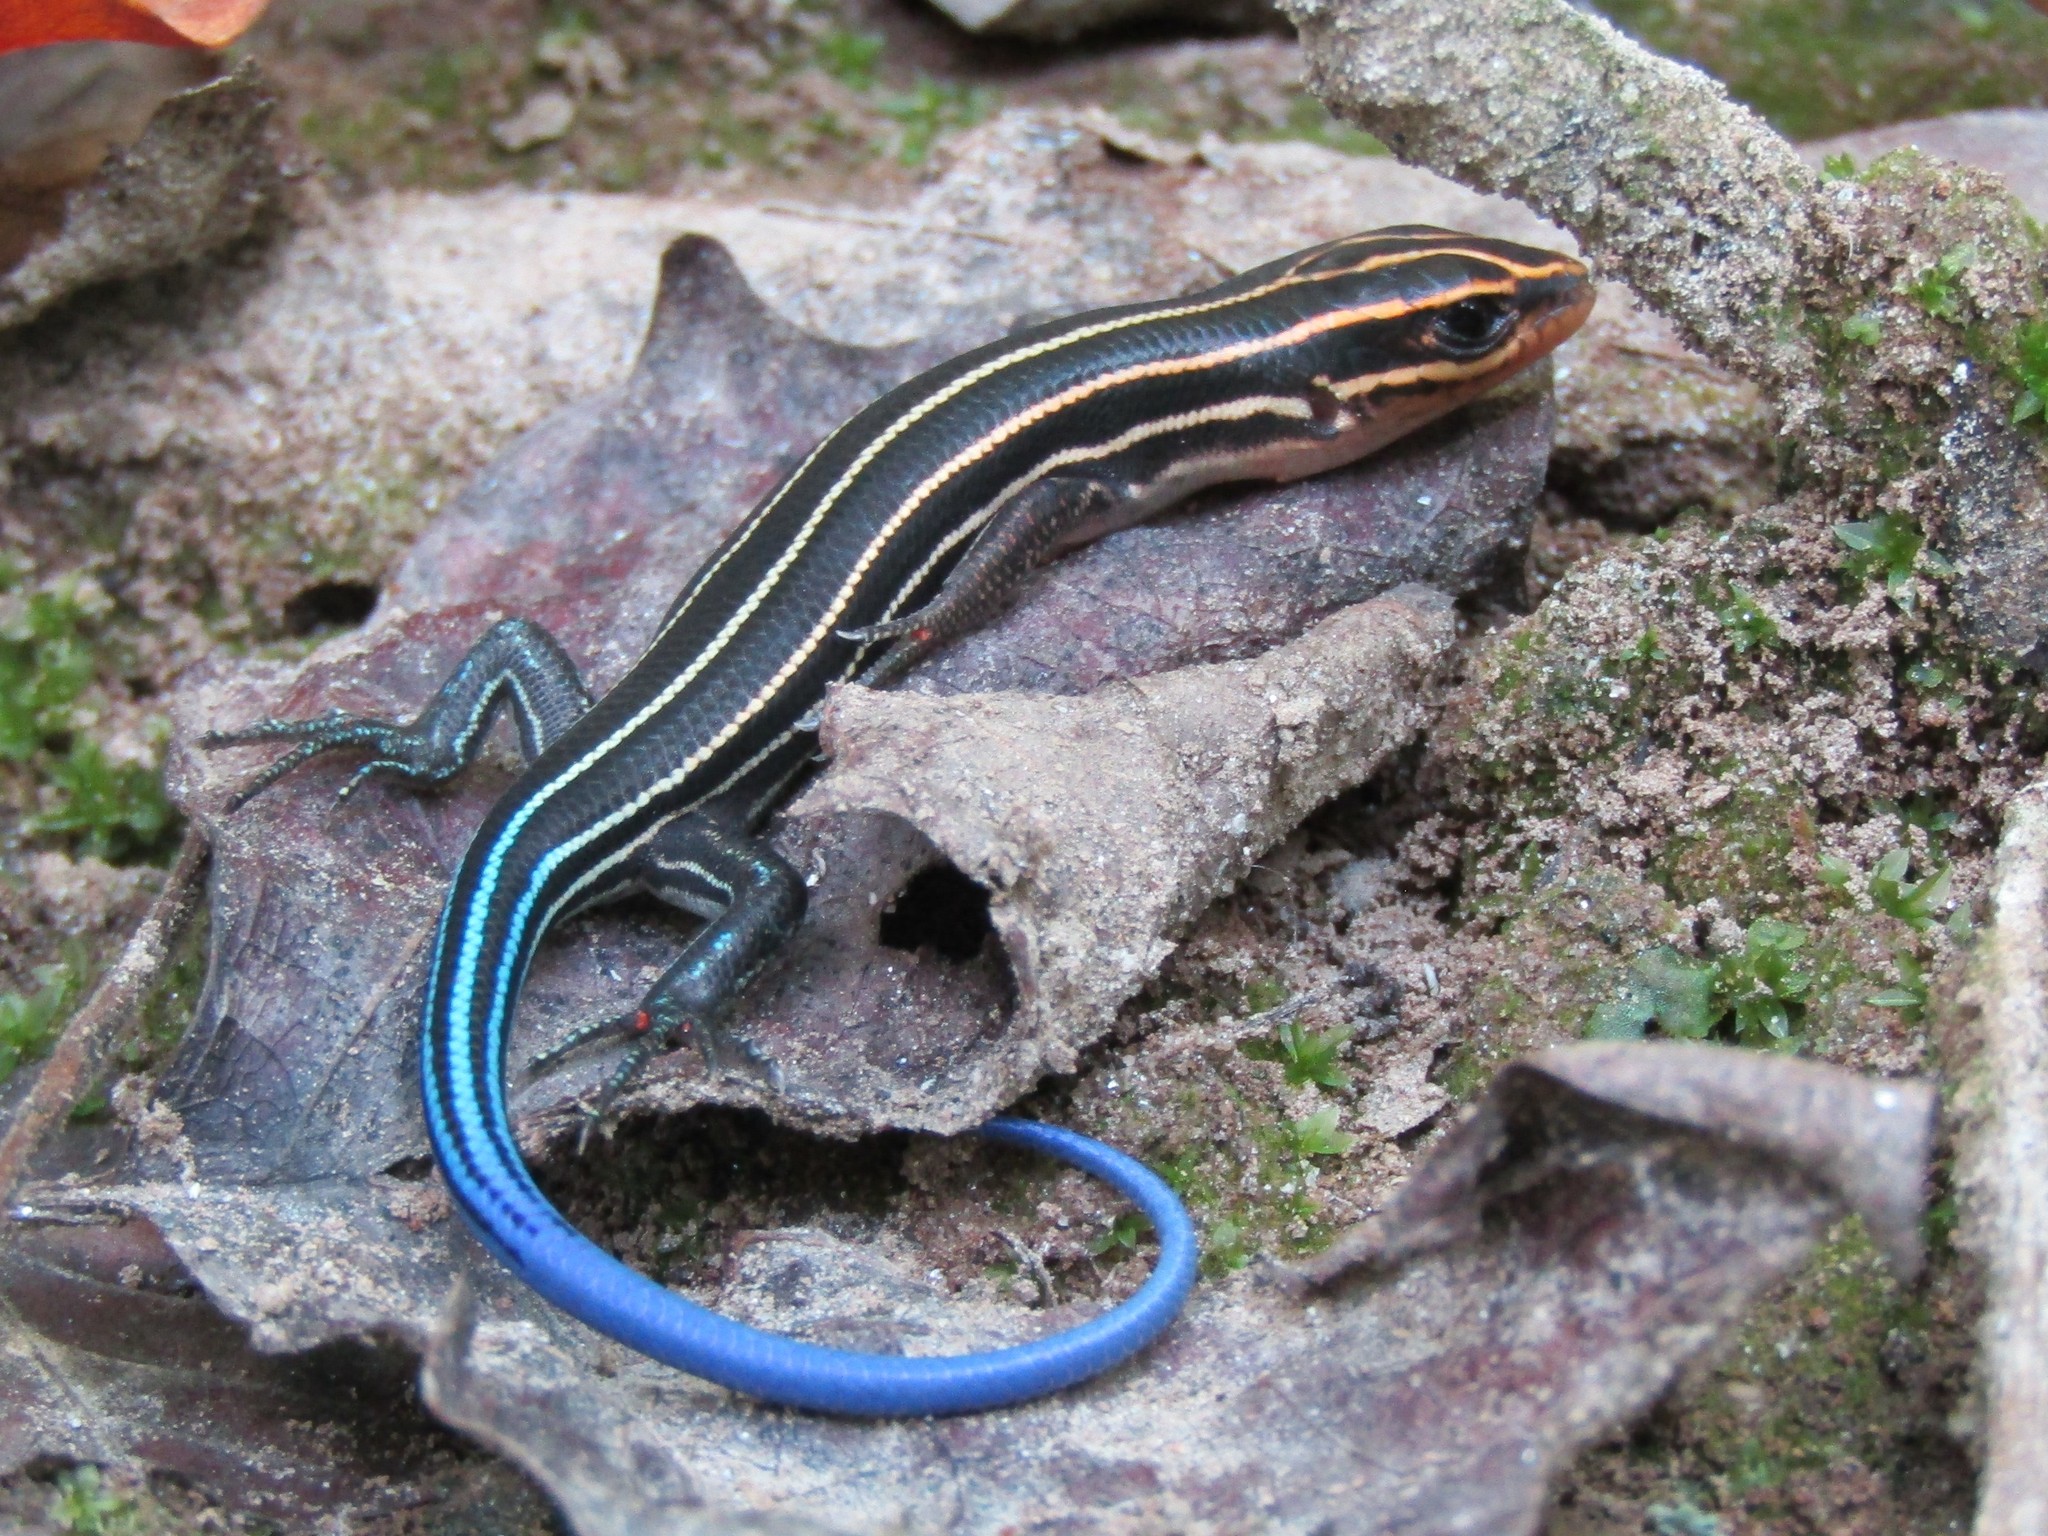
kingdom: Animalia
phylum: Chordata
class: Squamata
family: Scincidae
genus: Plestiodon
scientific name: Plestiodon laticeps
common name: Broadhead skink
